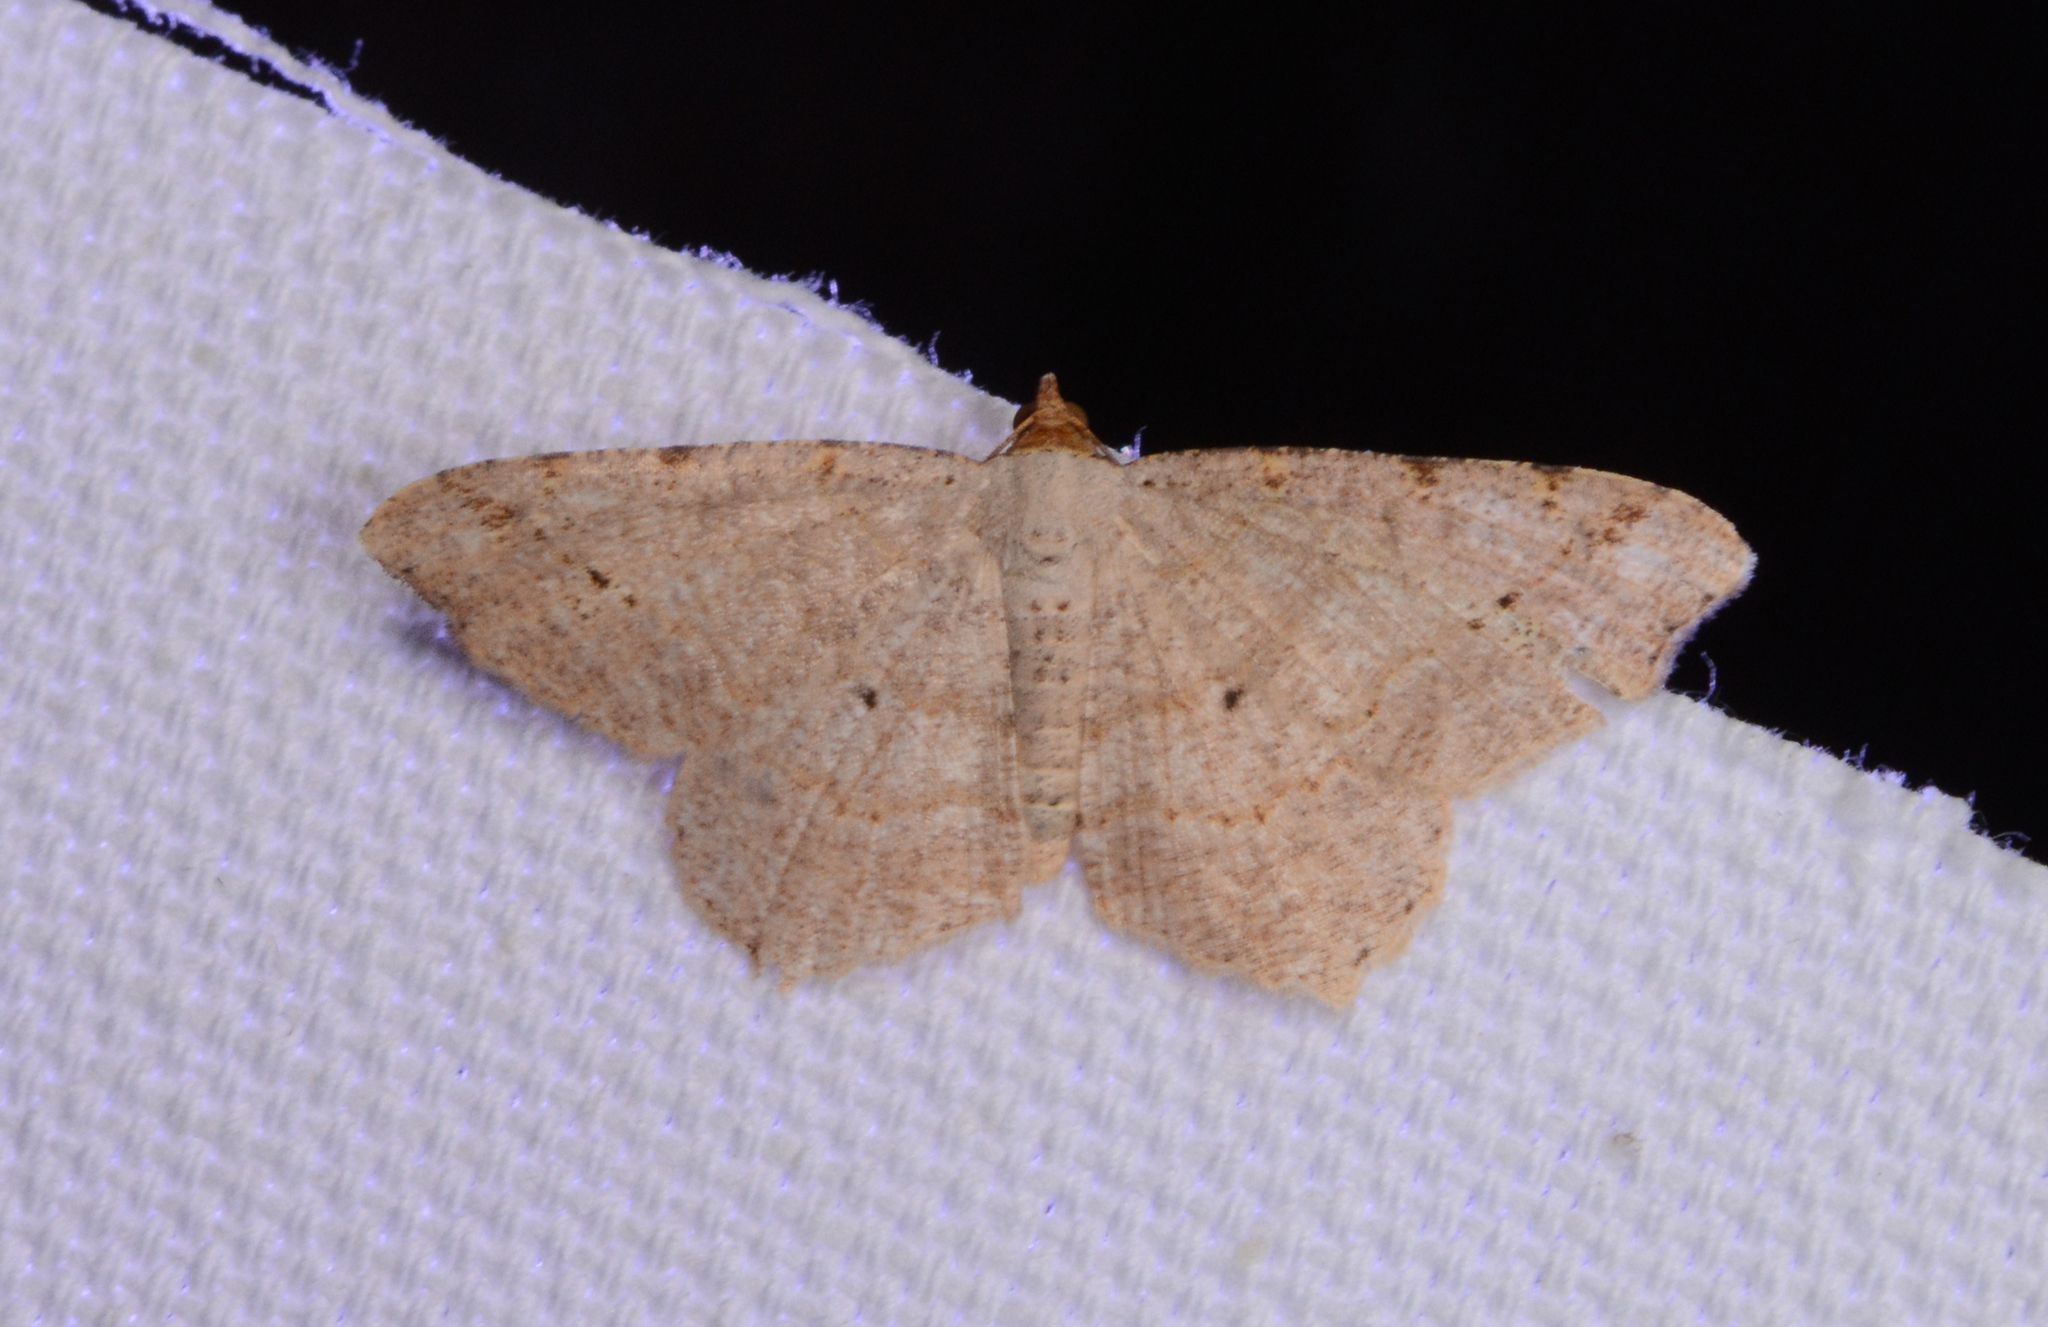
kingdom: Animalia
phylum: Arthropoda
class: Insecta
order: Lepidoptera
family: Geometridae
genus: Macaria
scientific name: Macaria bisignata
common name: Red-headed inchworm
